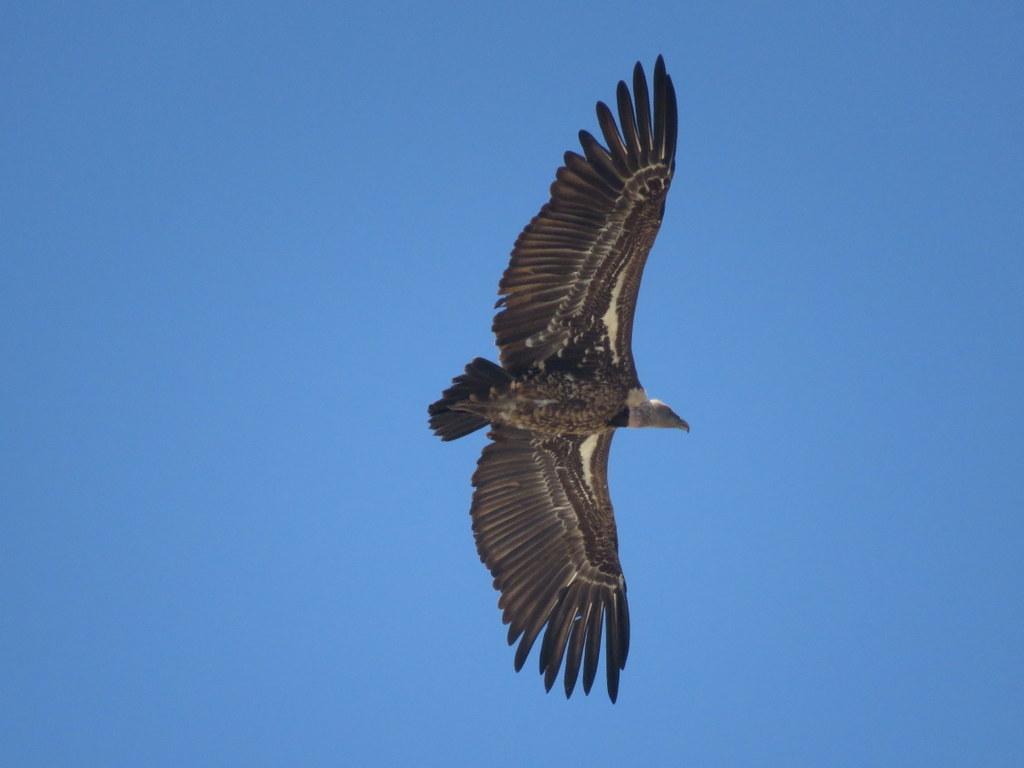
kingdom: Animalia
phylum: Chordata
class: Aves
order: Accipitriformes
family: Accipitridae
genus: Gyps
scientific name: Gyps rueppellii
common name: Rüppell's vulture
